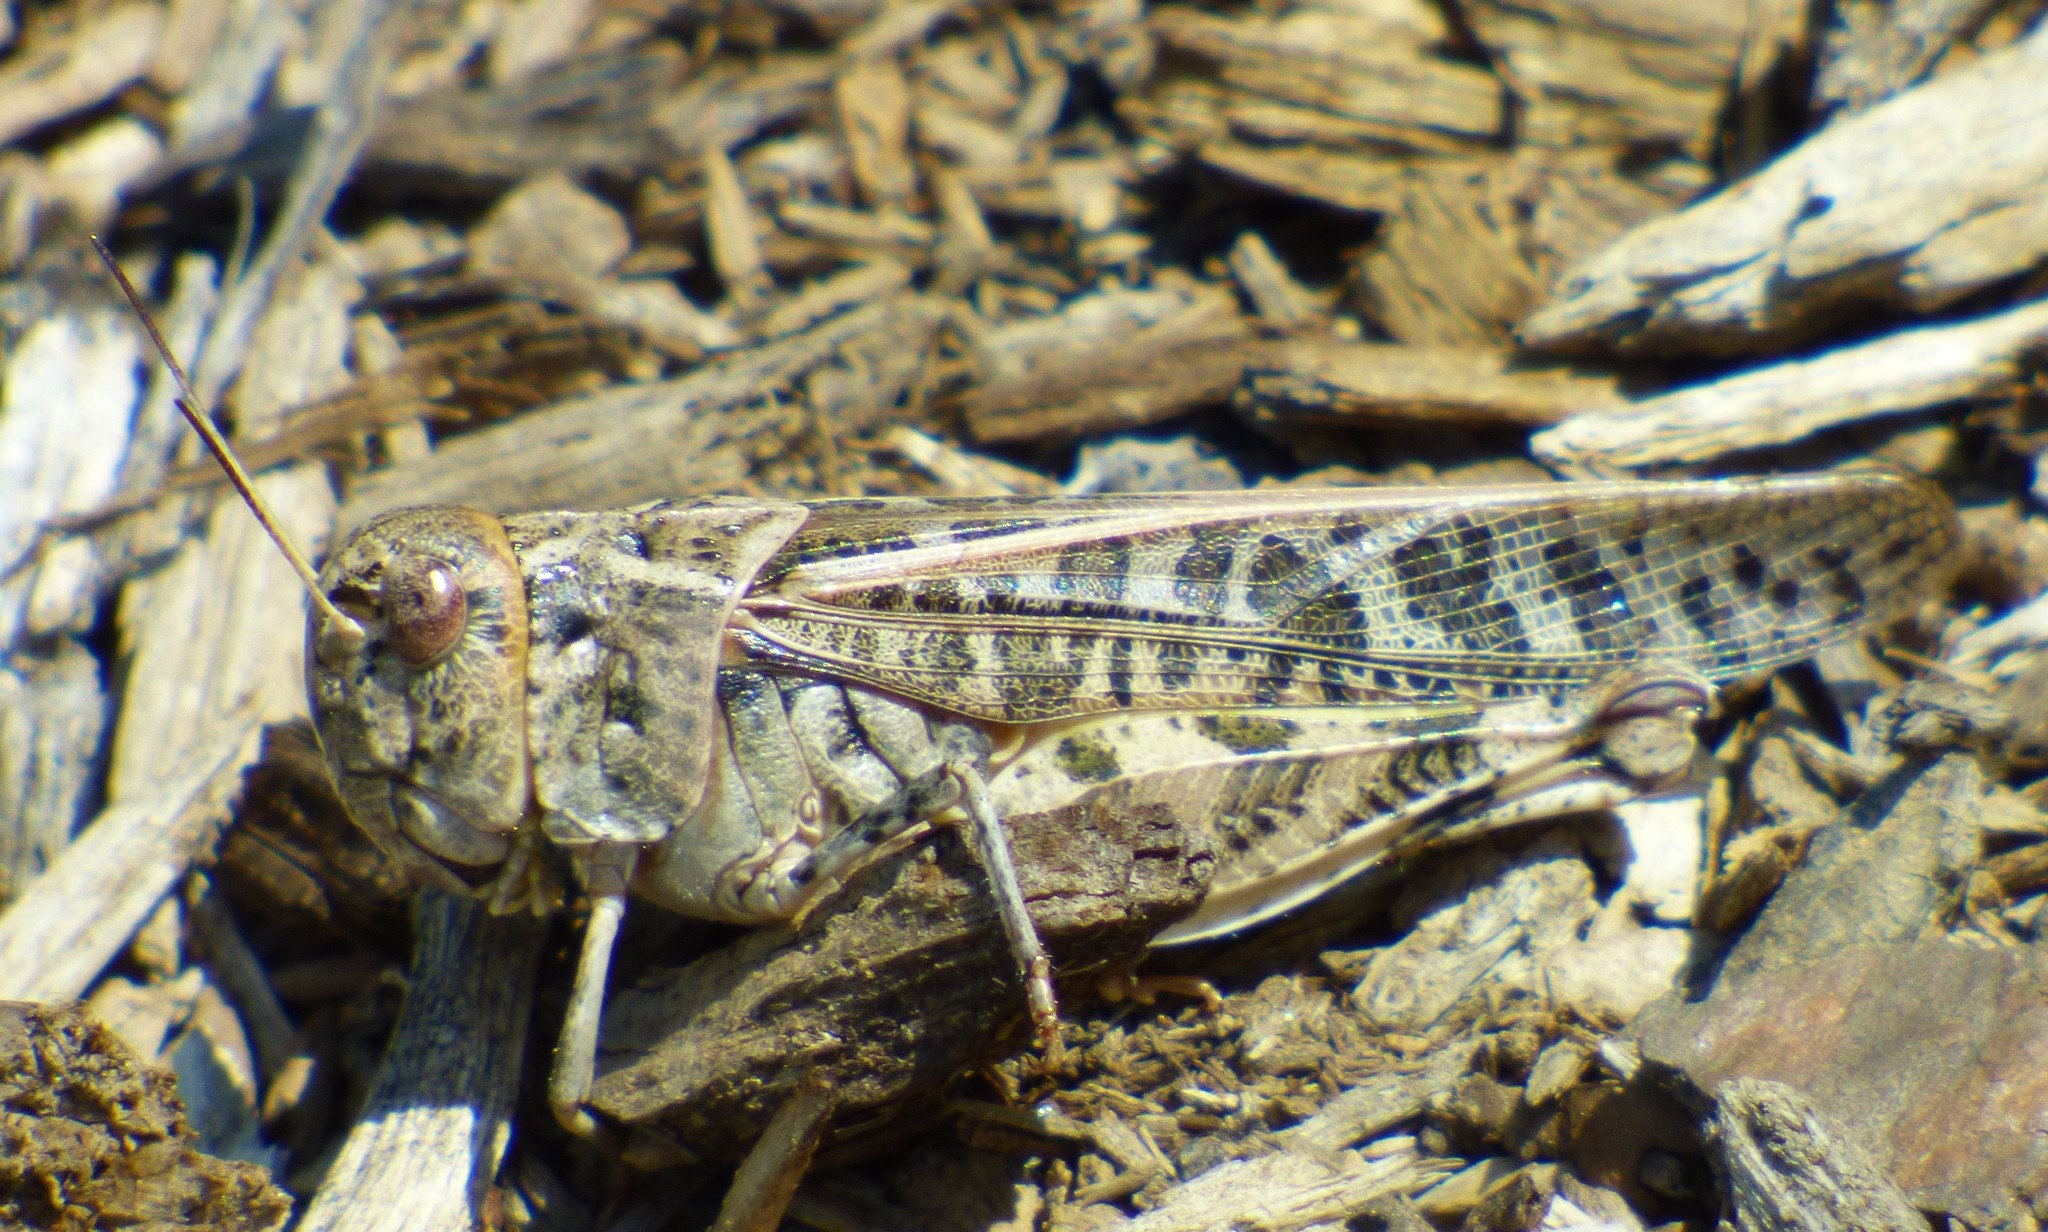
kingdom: Animalia
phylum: Arthropoda
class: Insecta
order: Orthoptera
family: Acrididae
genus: Hippiscus
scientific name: Hippiscus ocelote
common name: Wrinkled grasshopper
